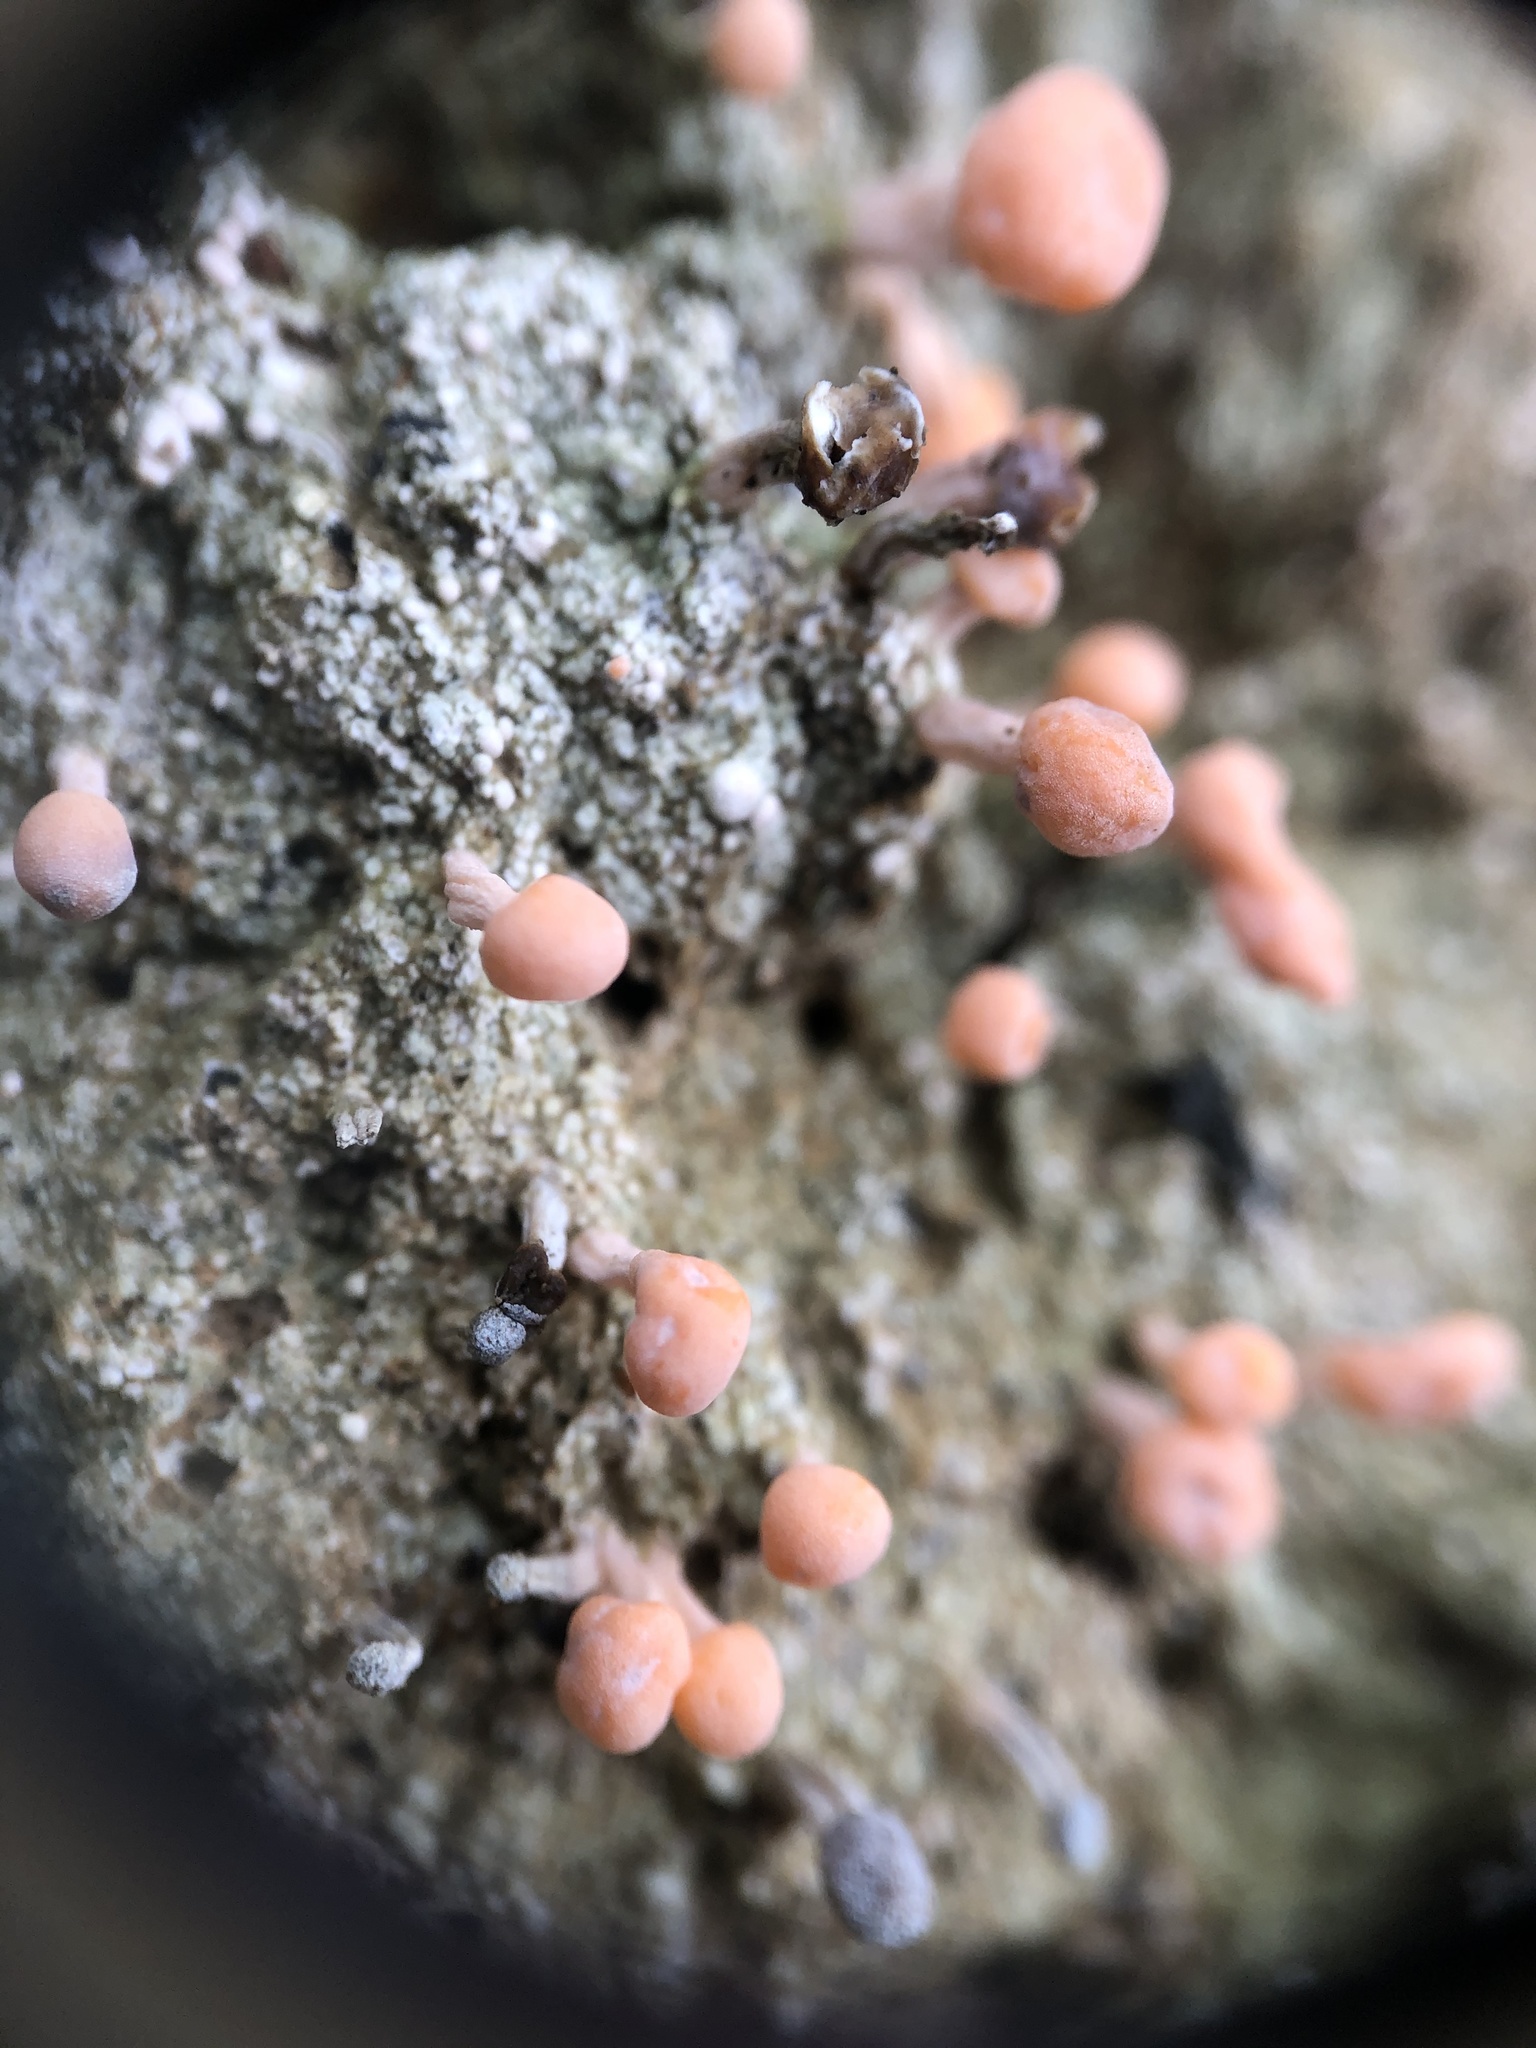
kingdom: Fungi
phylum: Ascomycota
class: Lecanoromycetes
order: Pertusariales
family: Icmadophilaceae
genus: Dibaeis
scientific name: Dibaeis baeomyces
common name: Pink earth lichen
